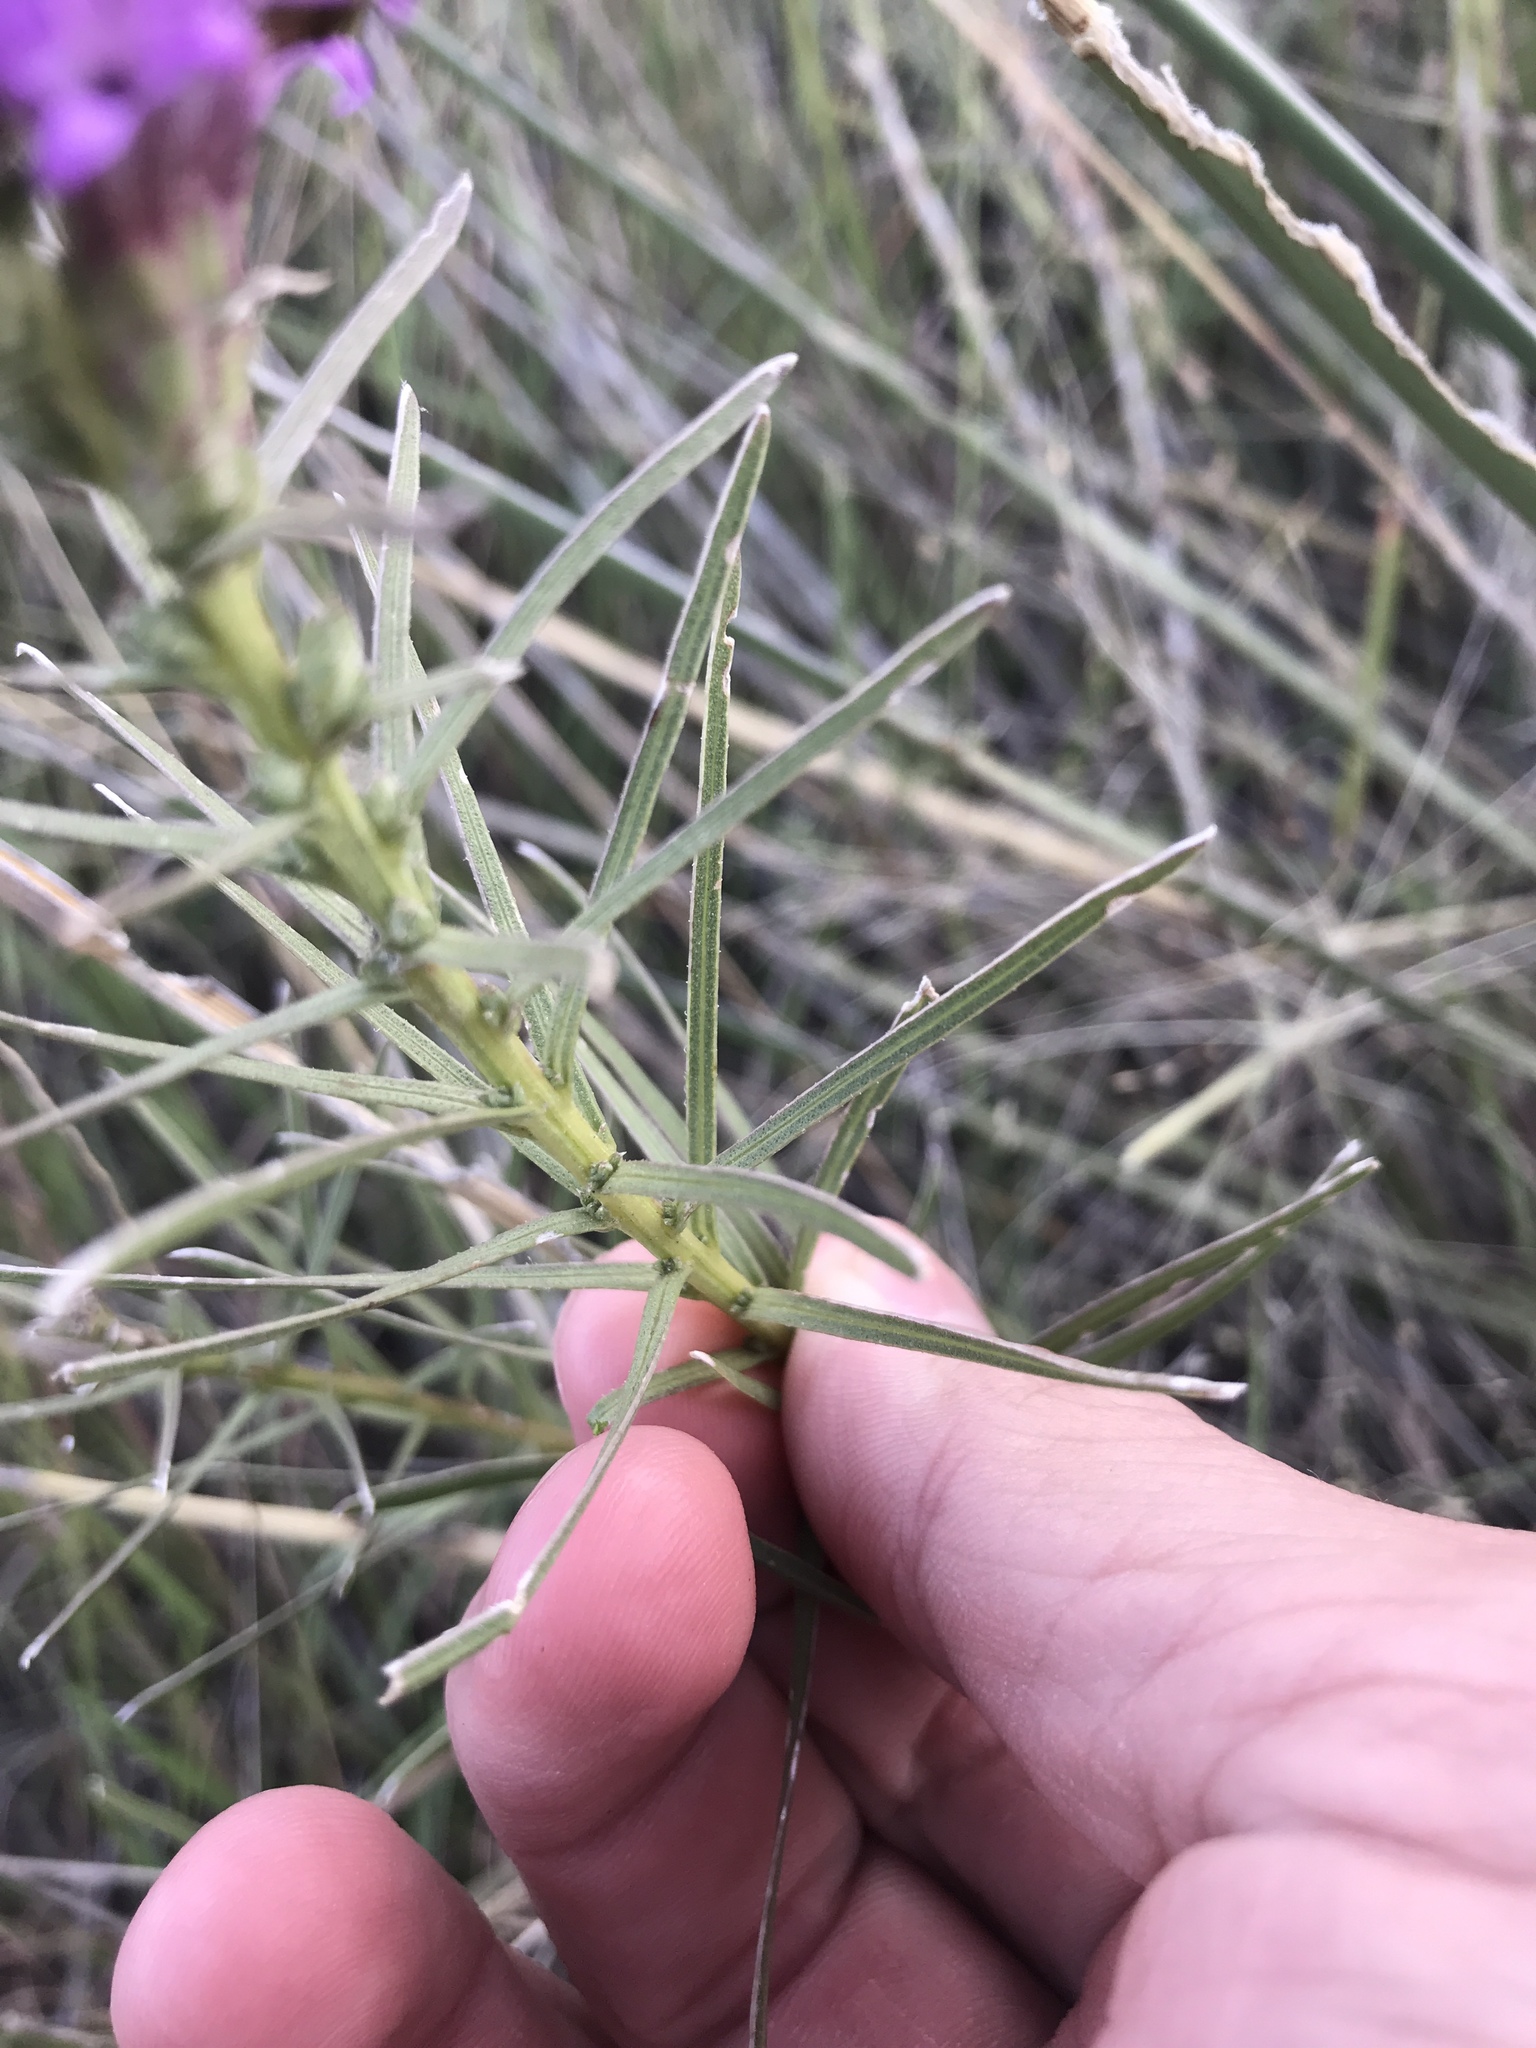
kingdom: Plantae
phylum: Tracheophyta
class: Magnoliopsida
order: Asterales
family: Asteraceae
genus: Liatris
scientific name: Liatris punctata
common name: Dotted gayfeather
